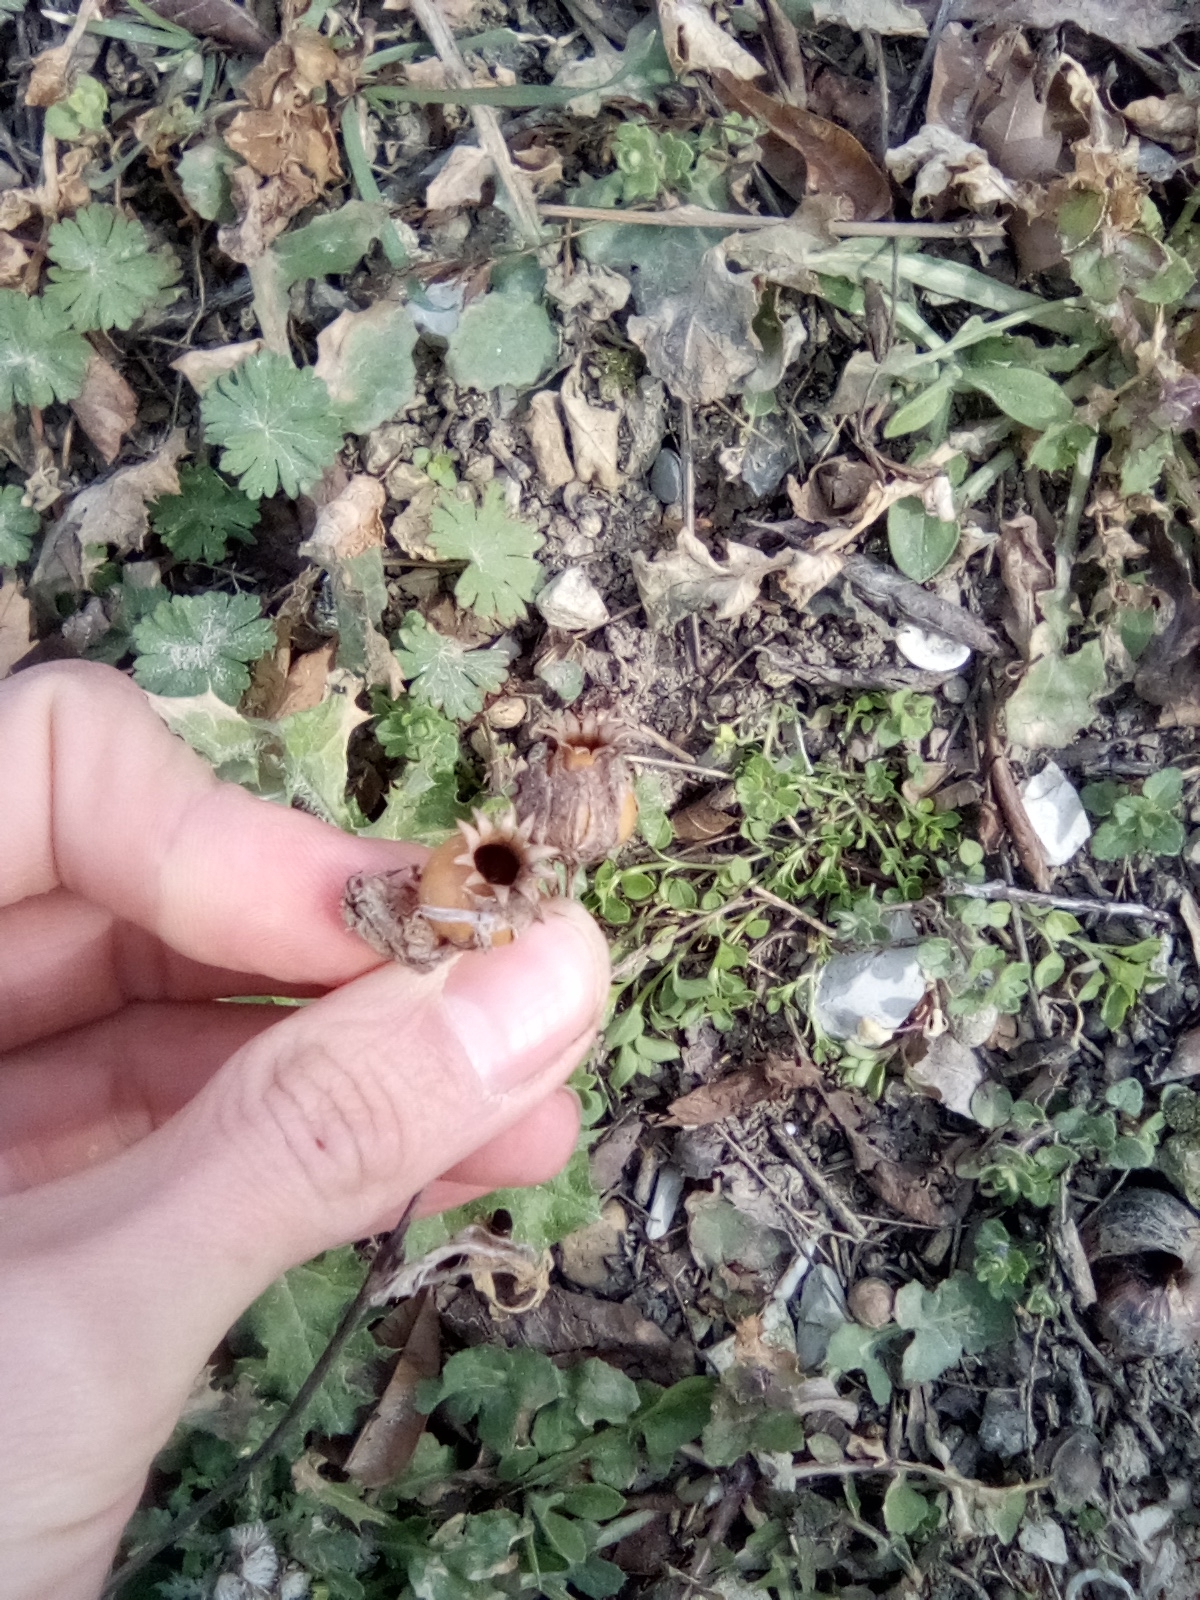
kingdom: Plantae
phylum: Tracheophyta
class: Magnoliopsida
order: Caryophyllales
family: Caryophyllaceae
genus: Silene
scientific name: Silene latifolia
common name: White campion
